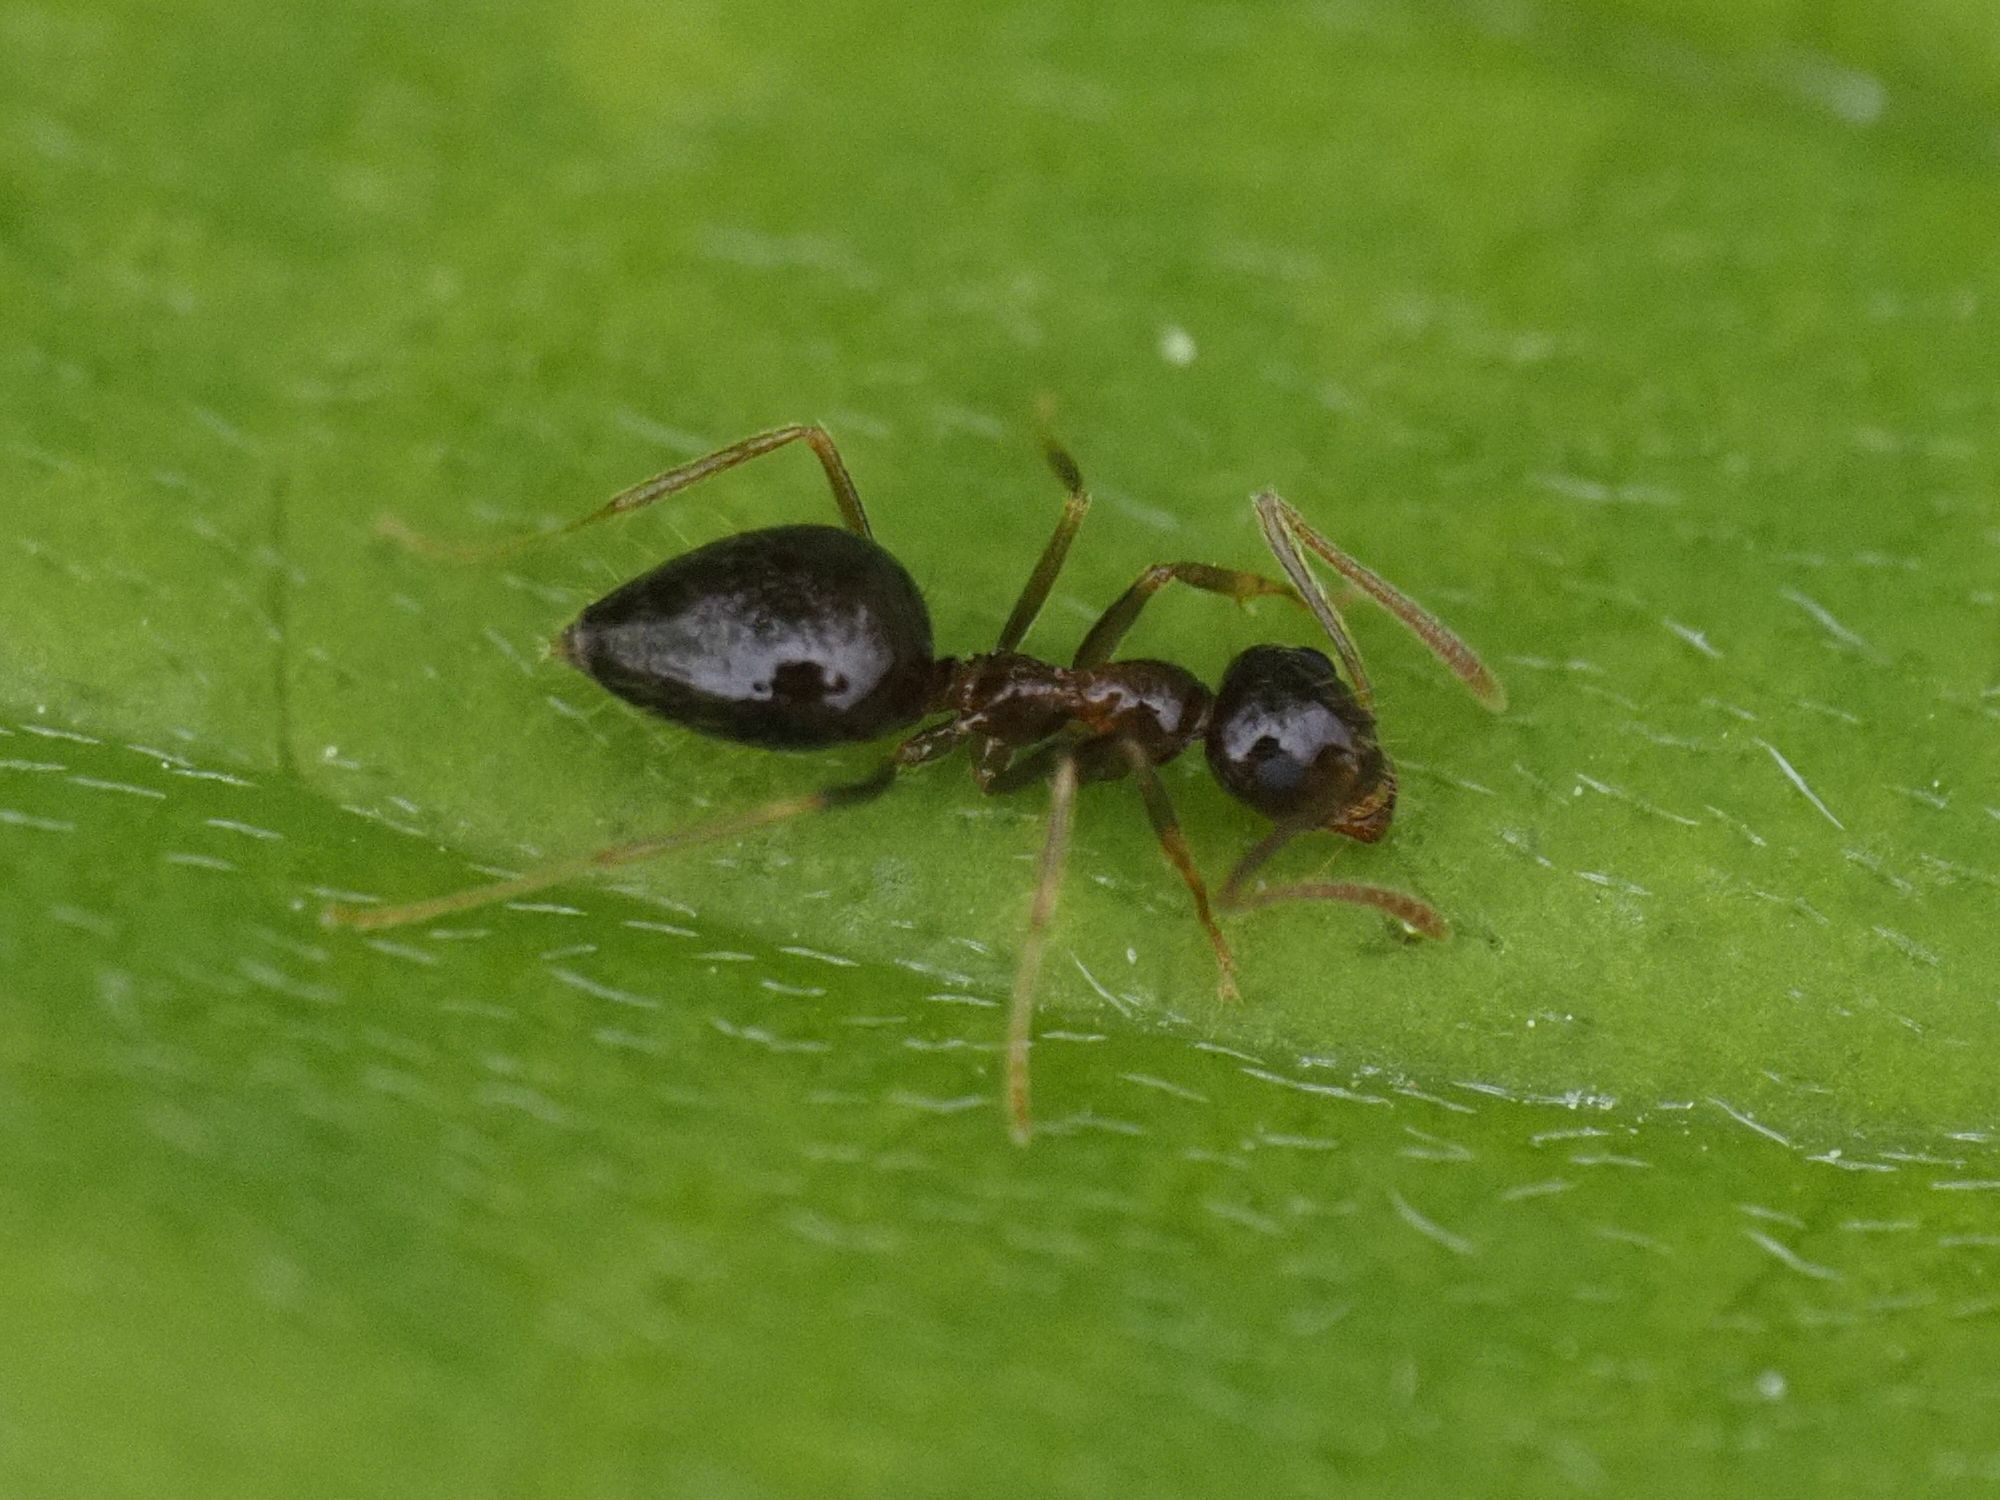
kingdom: Animalia
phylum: Arthropoda
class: Insecta
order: Hymenoptera
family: Formicidae
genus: Prenolepis
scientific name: Prenolepis nitens
